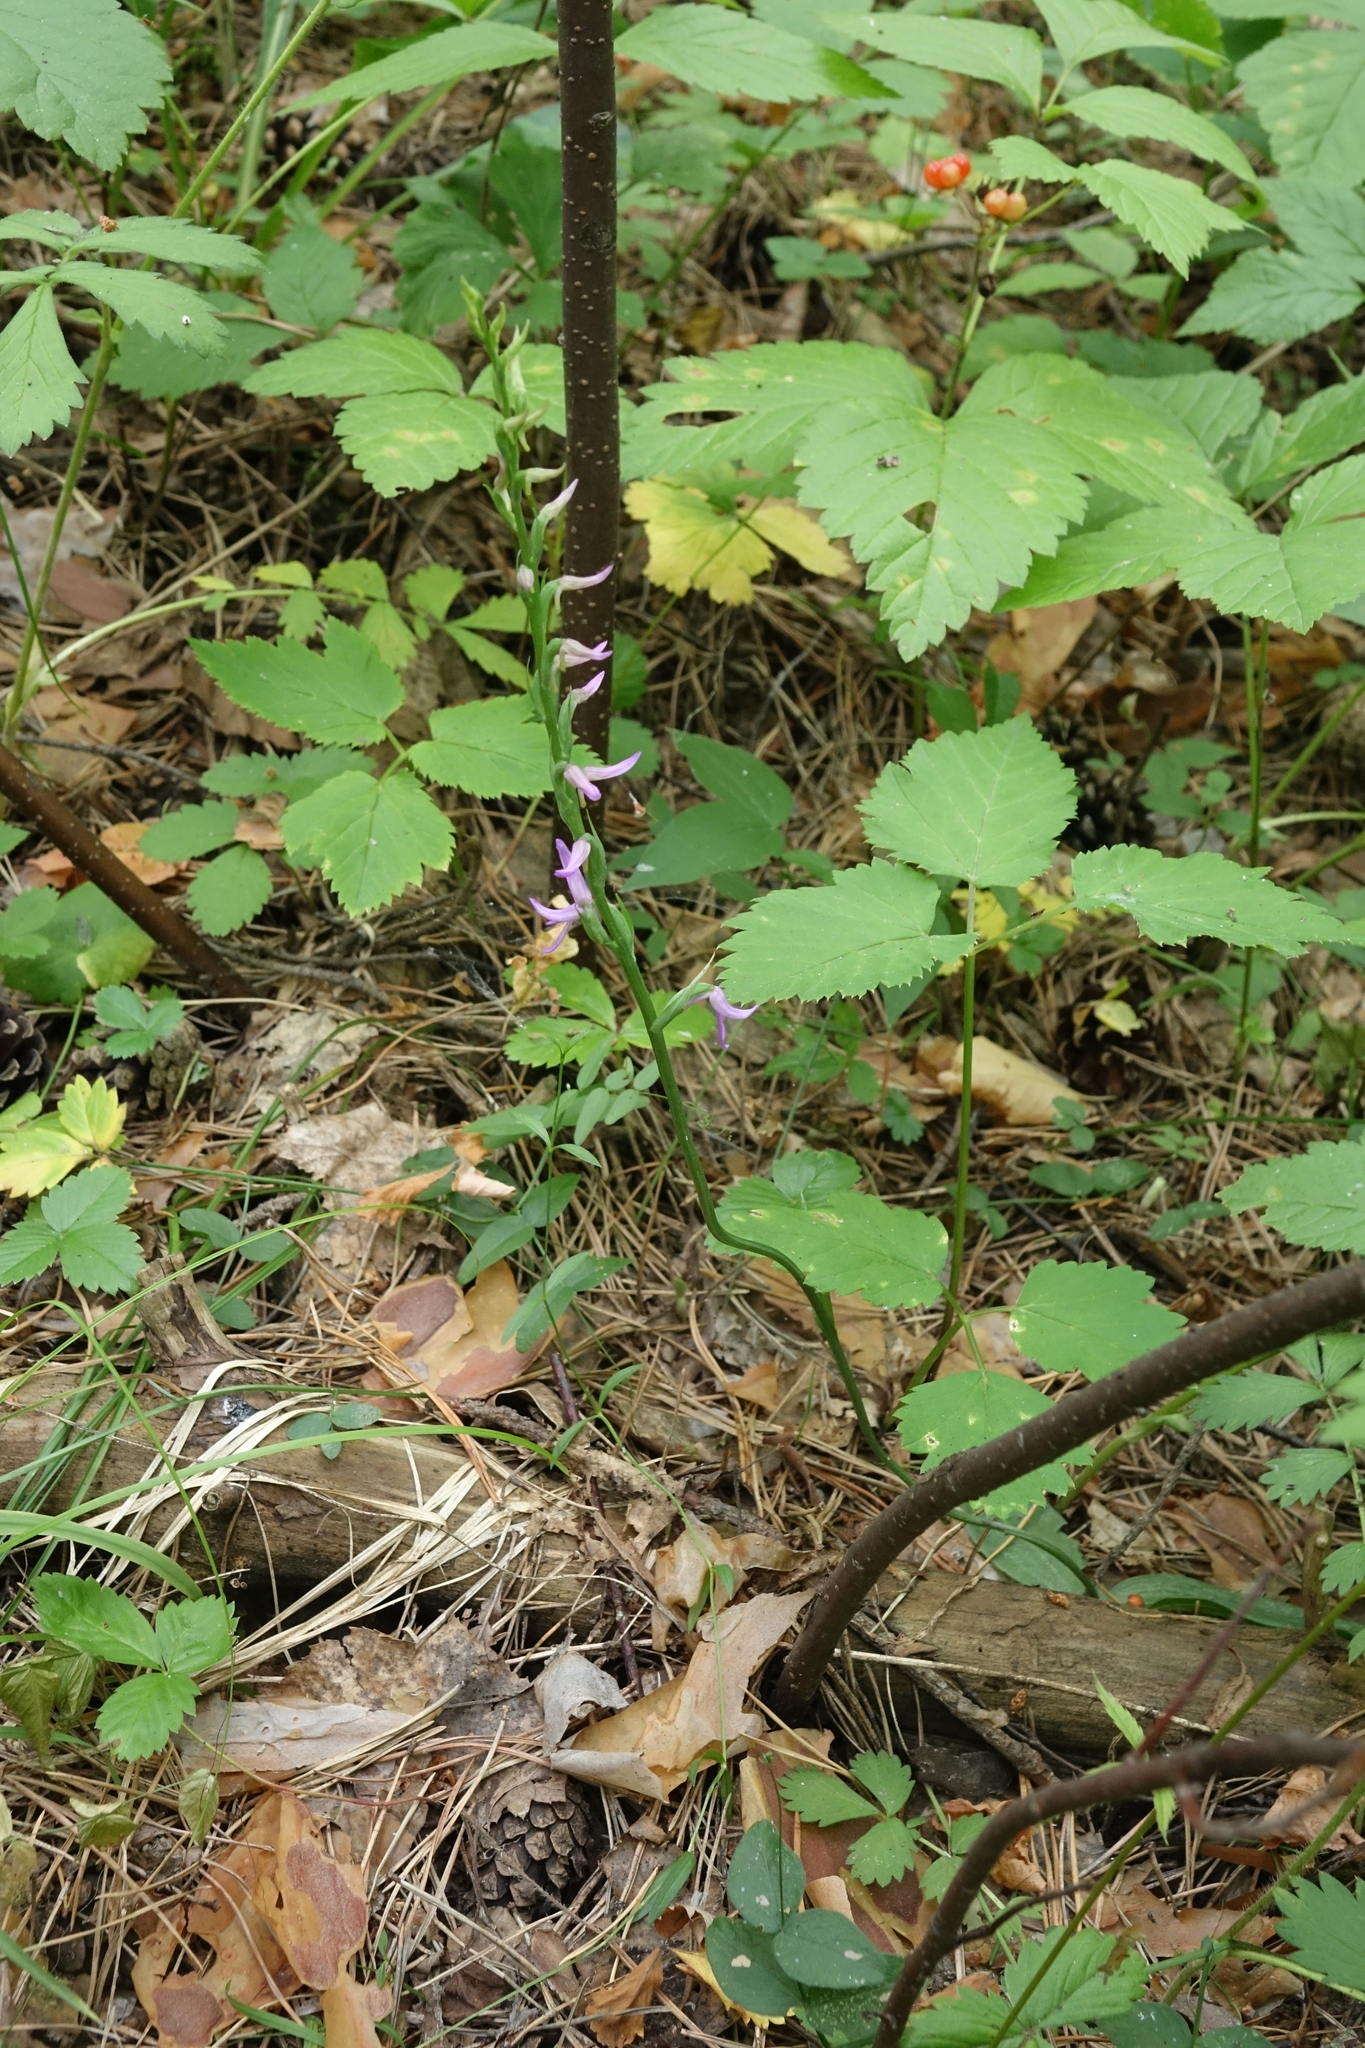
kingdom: Plantae
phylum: Tracheophyta
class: Liliopsida
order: Asparagales
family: Orchidaceae
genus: Hemipilia
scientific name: Hemipilia cucullata
